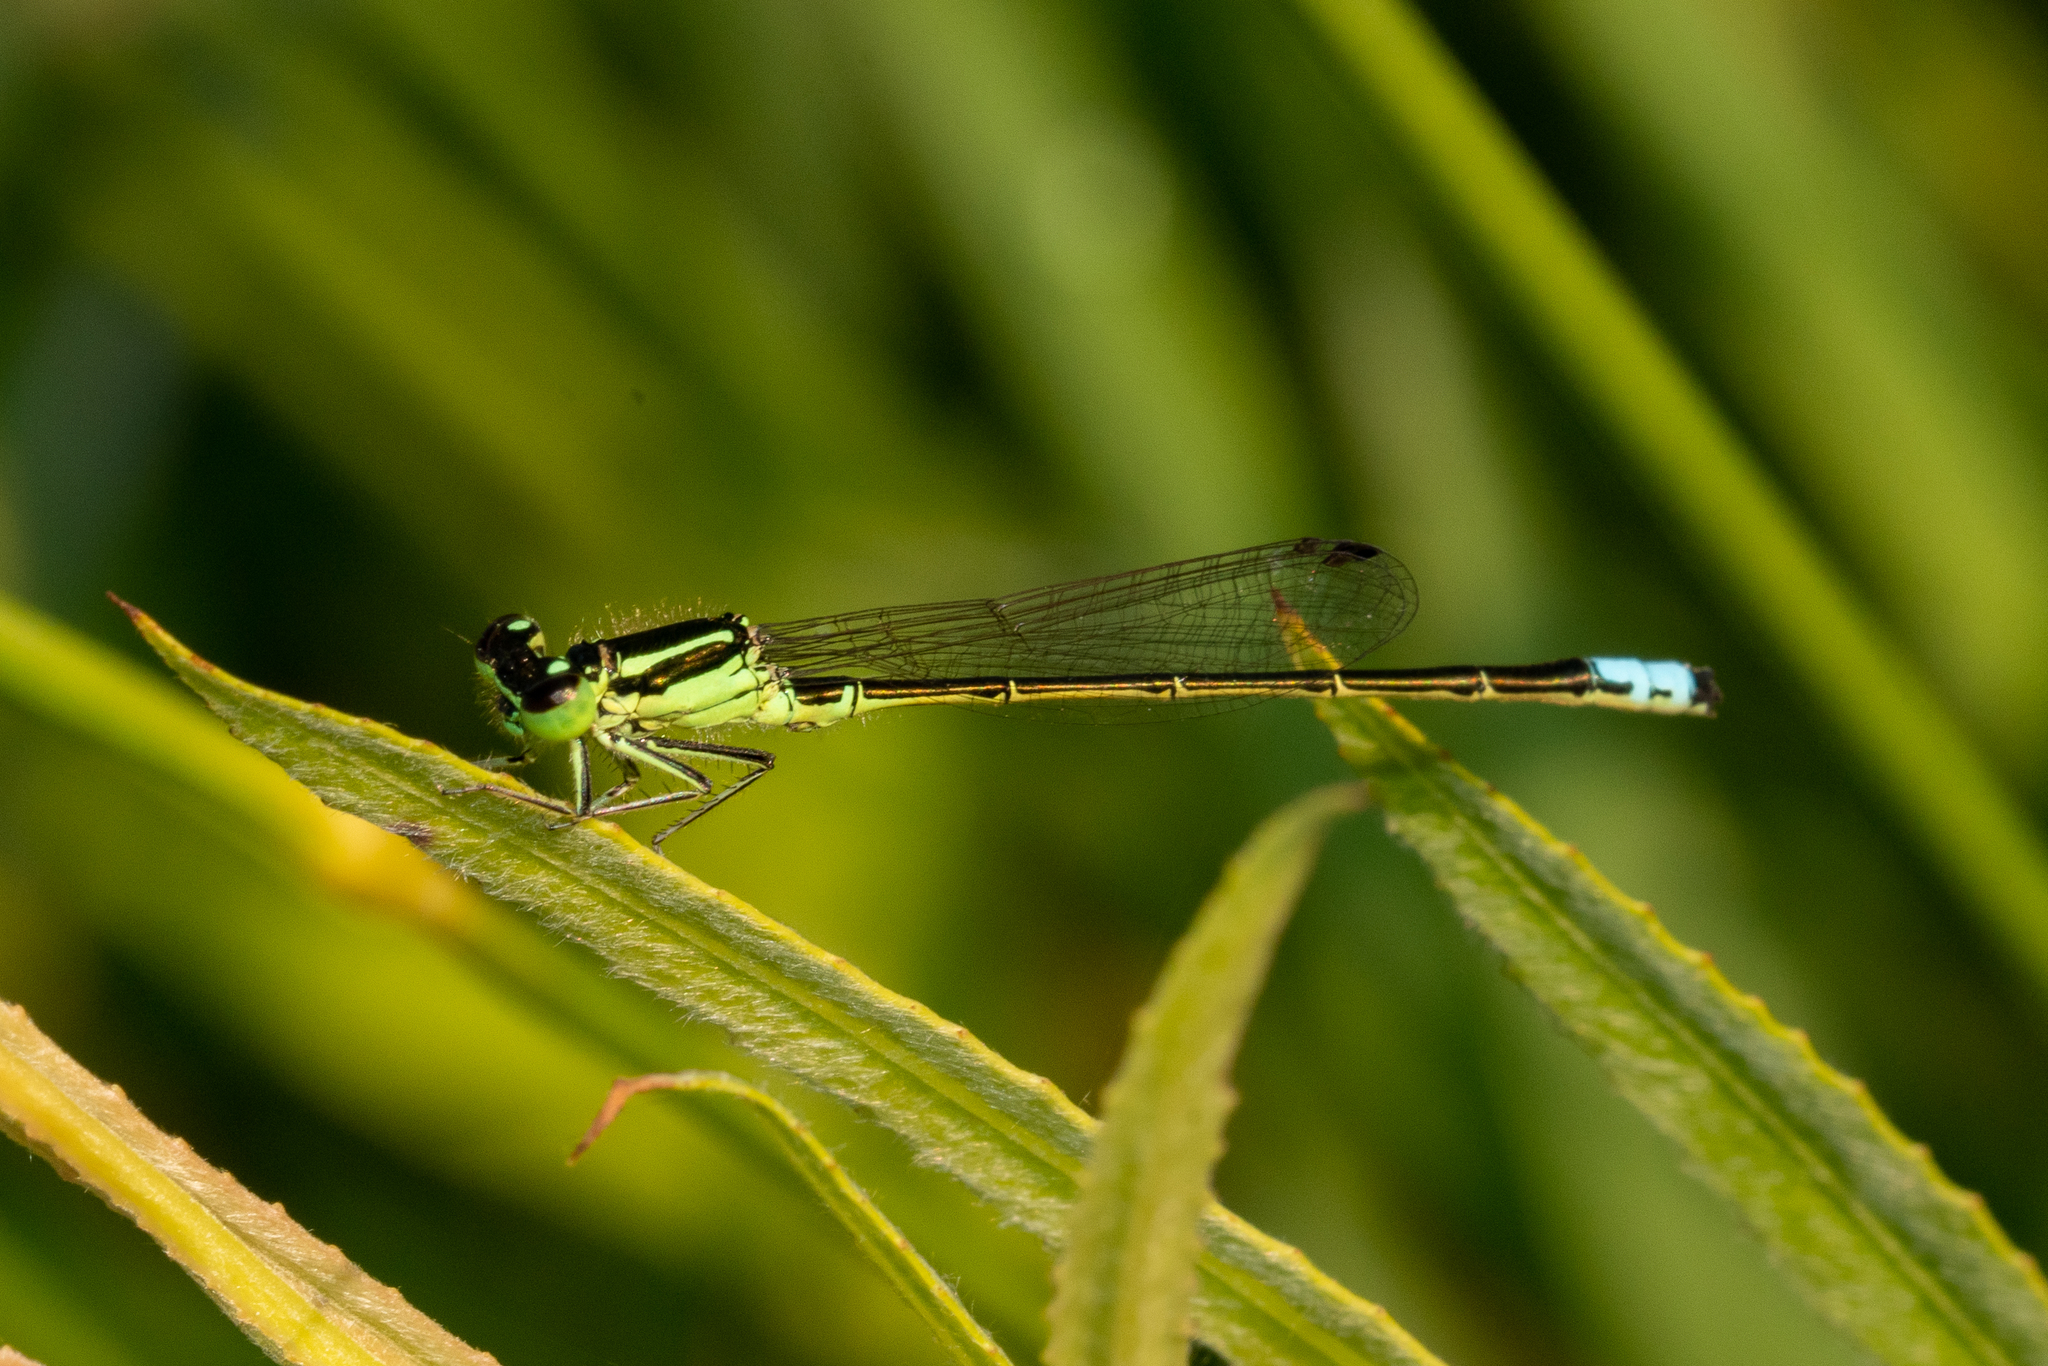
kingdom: Animalia
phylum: Arthropoda
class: Insecta
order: Odonata
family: Coenagrionidae
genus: Ischnura
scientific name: Ischnura verticalis
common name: Eastern forktail
